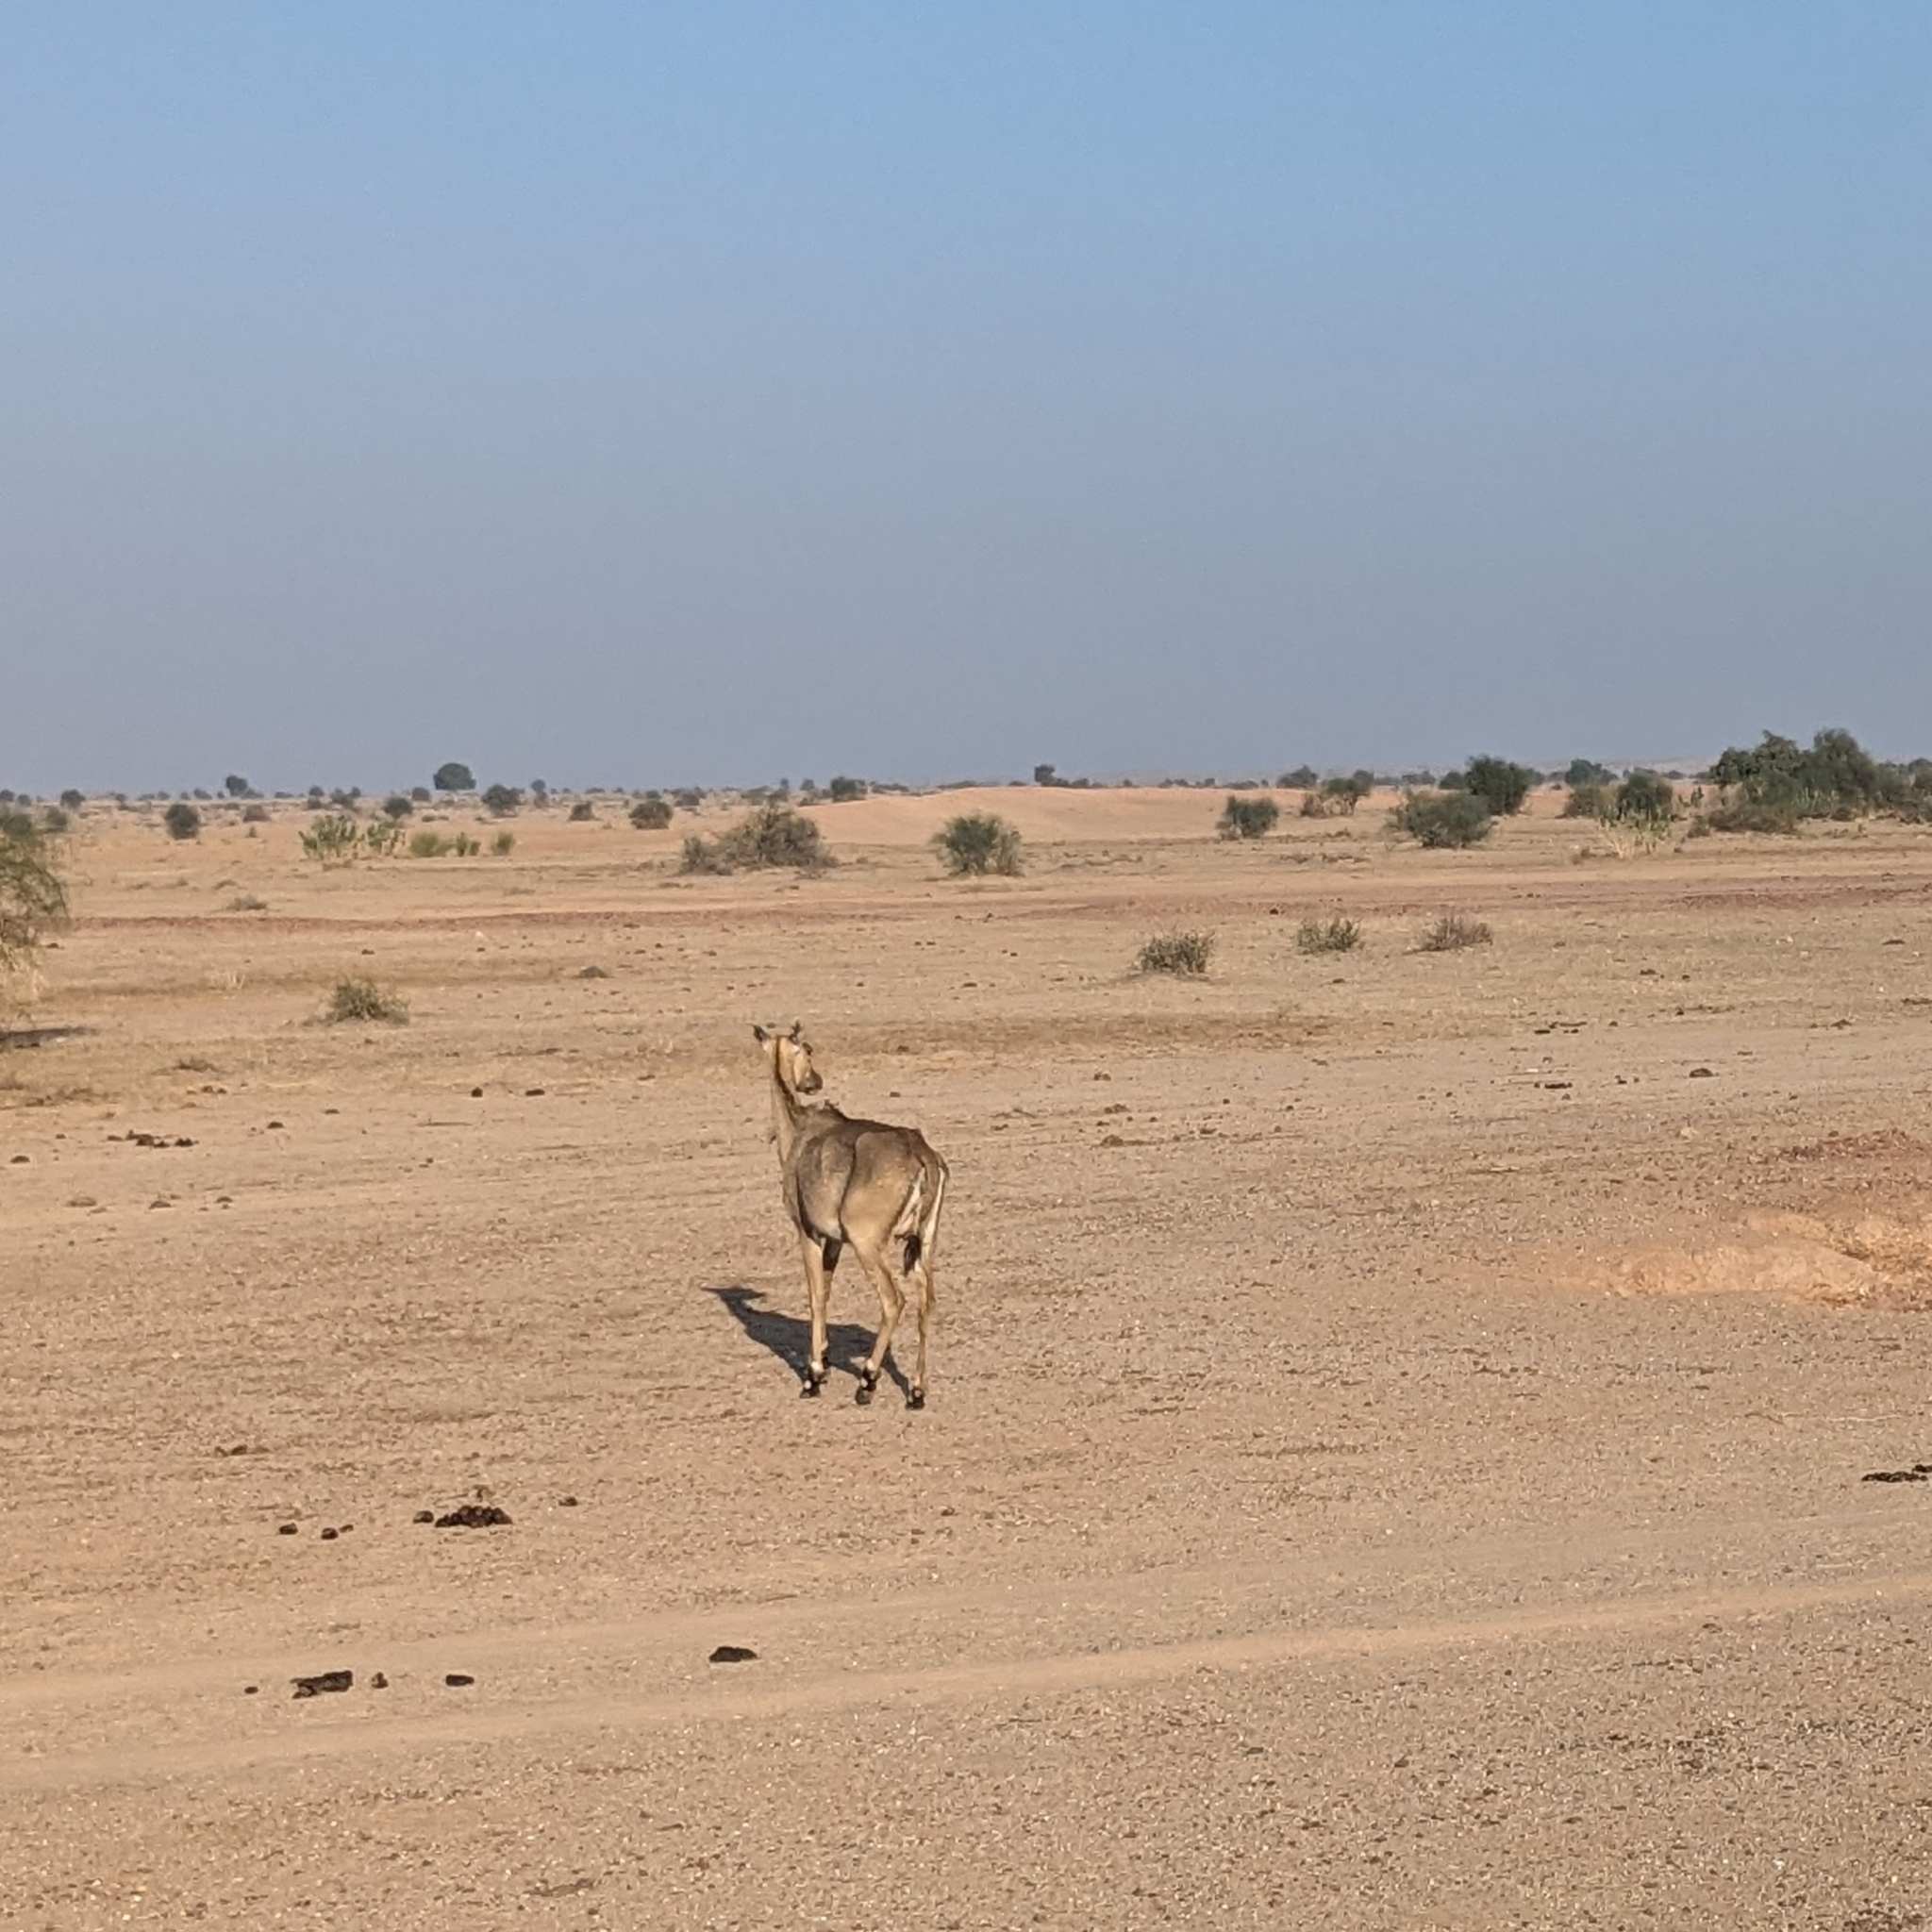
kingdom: Animalia
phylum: Chordata
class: Mammalia
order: Artiodactyla
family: Bovidae
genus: Boselaphus
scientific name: Boselaphus tragocamelus
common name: Nilgai
